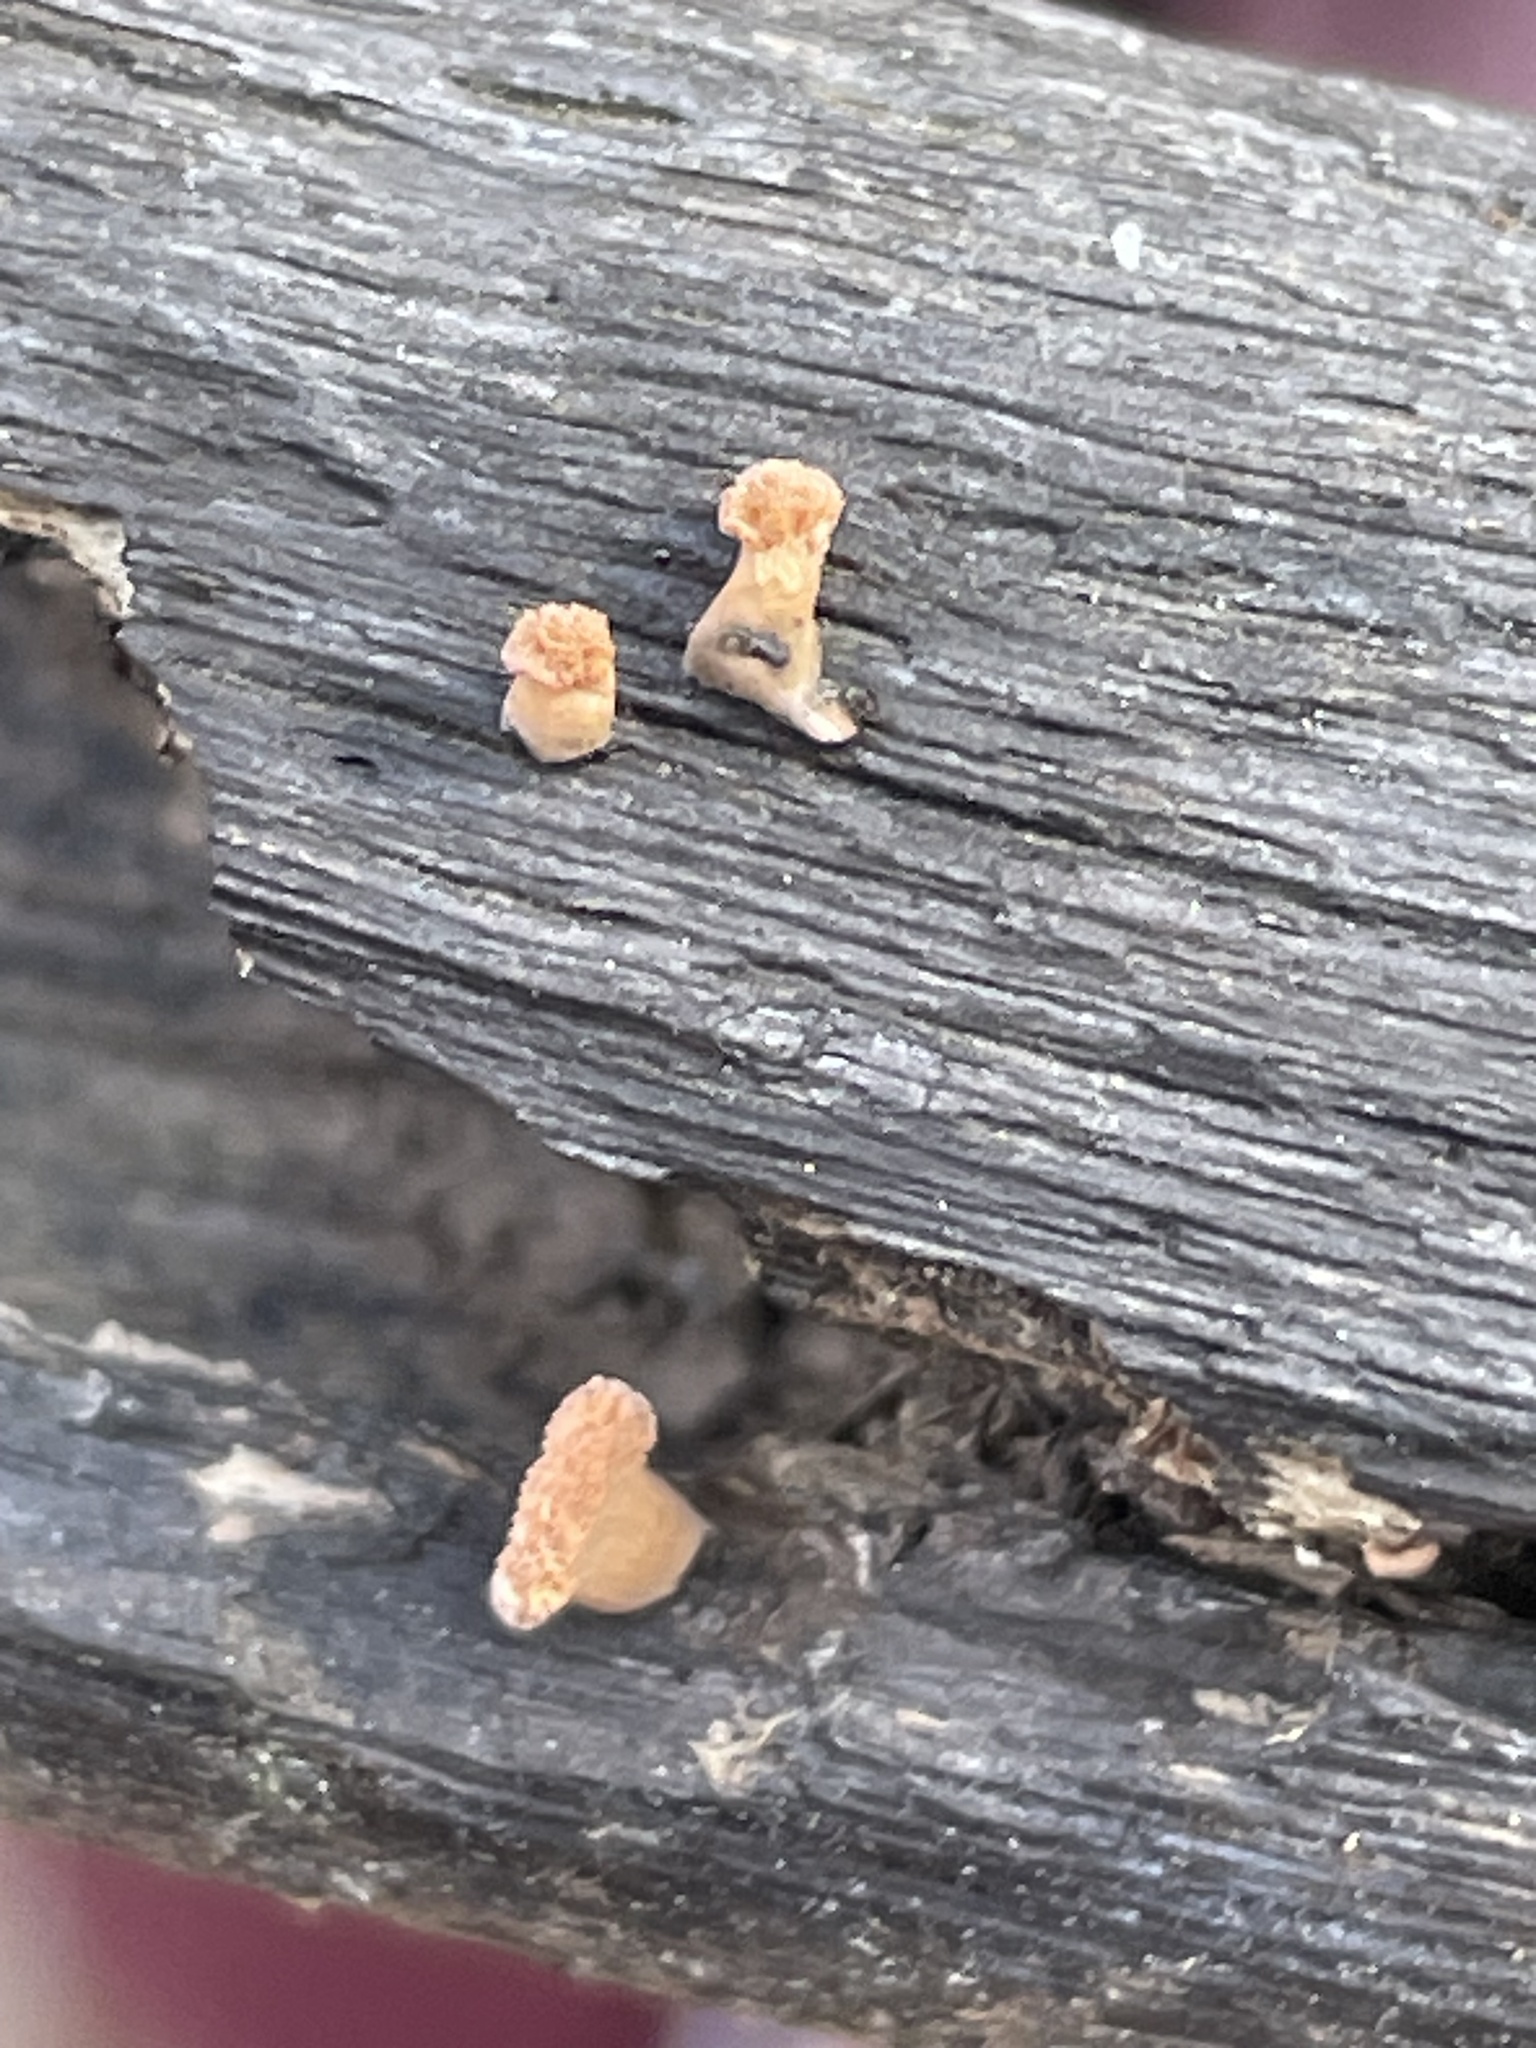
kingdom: Fungi
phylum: Ascomycota
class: Sordariomycetes
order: Xylariales
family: Xylariaceae
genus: Xylaria
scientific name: Xylaria cubensis
